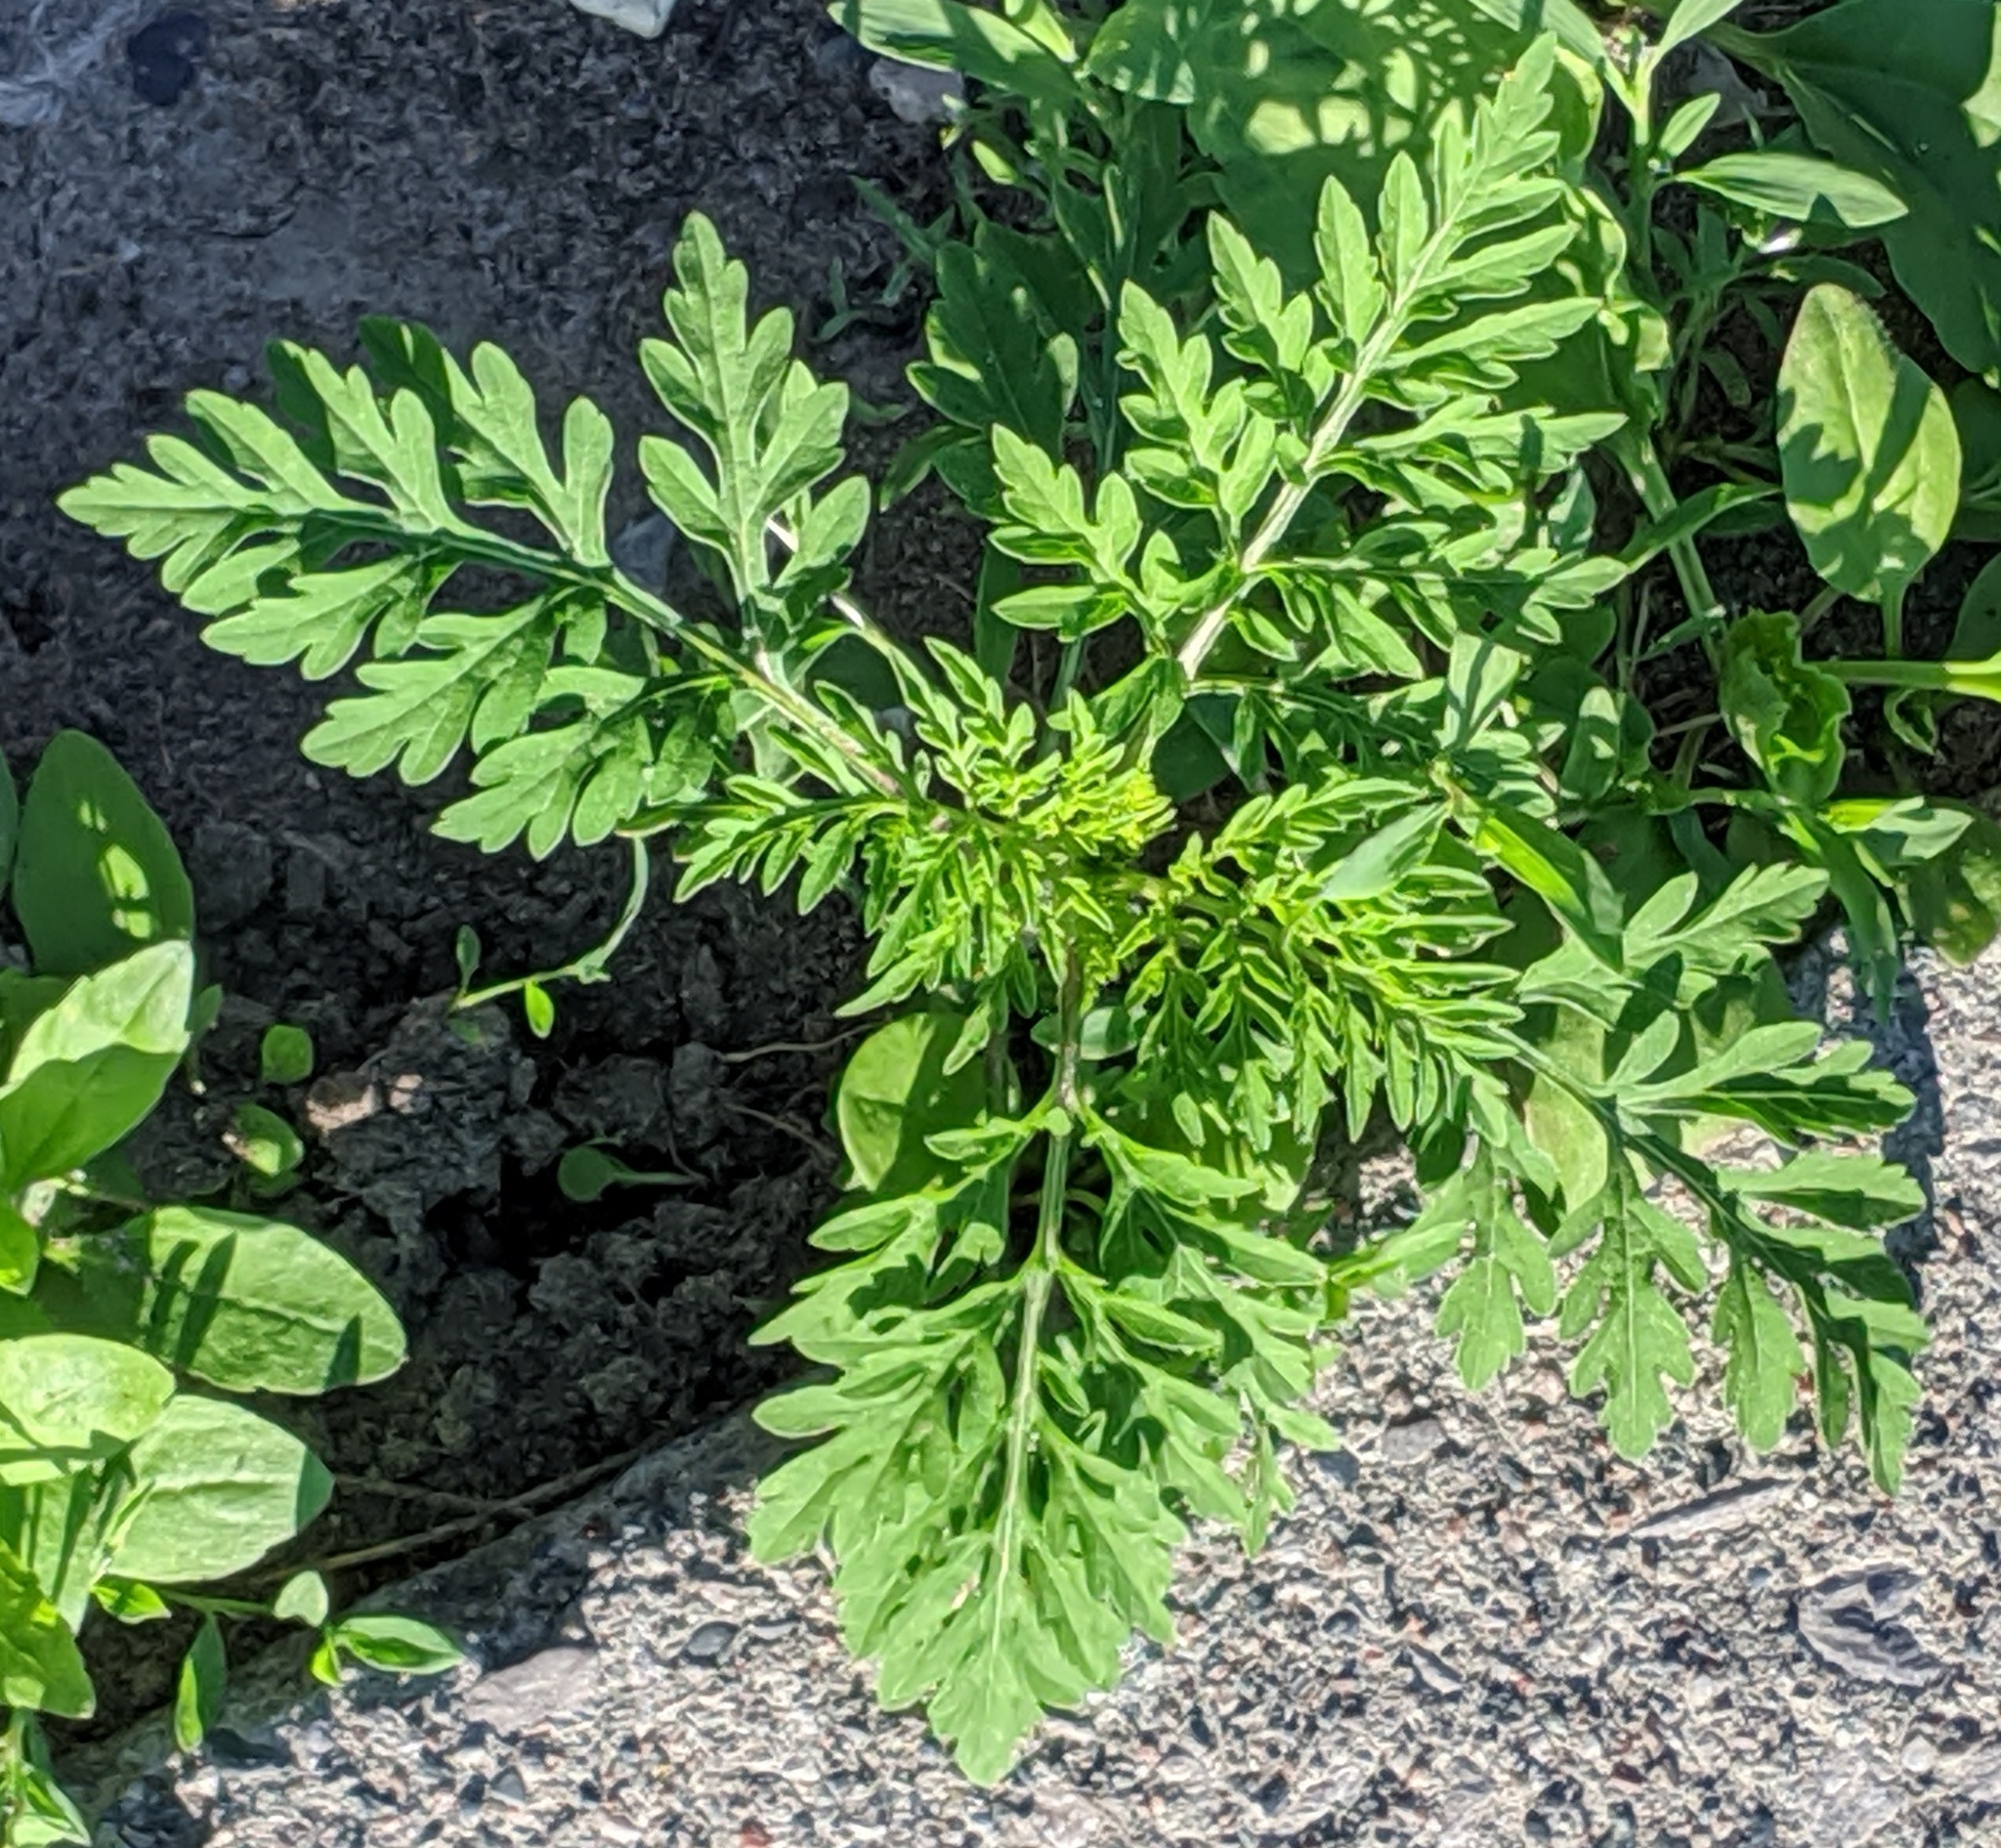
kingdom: Plantae
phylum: Tracheophyta
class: Magnoliopsida
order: Asterales
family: Asteraceae
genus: Ambrosia
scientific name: Ambrosia artemisiifolia
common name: Annual ragweed
